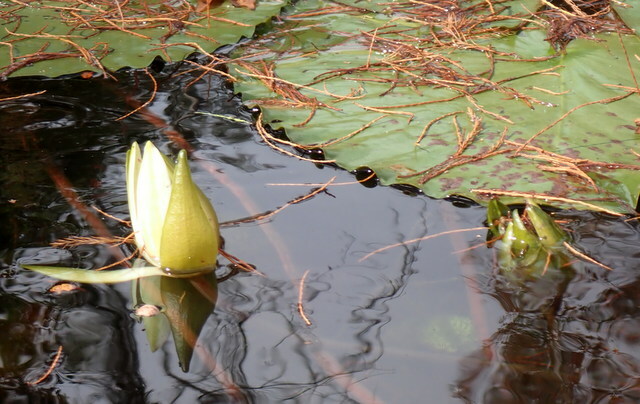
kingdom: Plantae
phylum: Tracheophyta
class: Magnoliopsida
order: Nymphaeales
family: Nymphaeaceae
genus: Nymphaea
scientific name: Nymphaea odorata
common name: Fragrant water-lily
